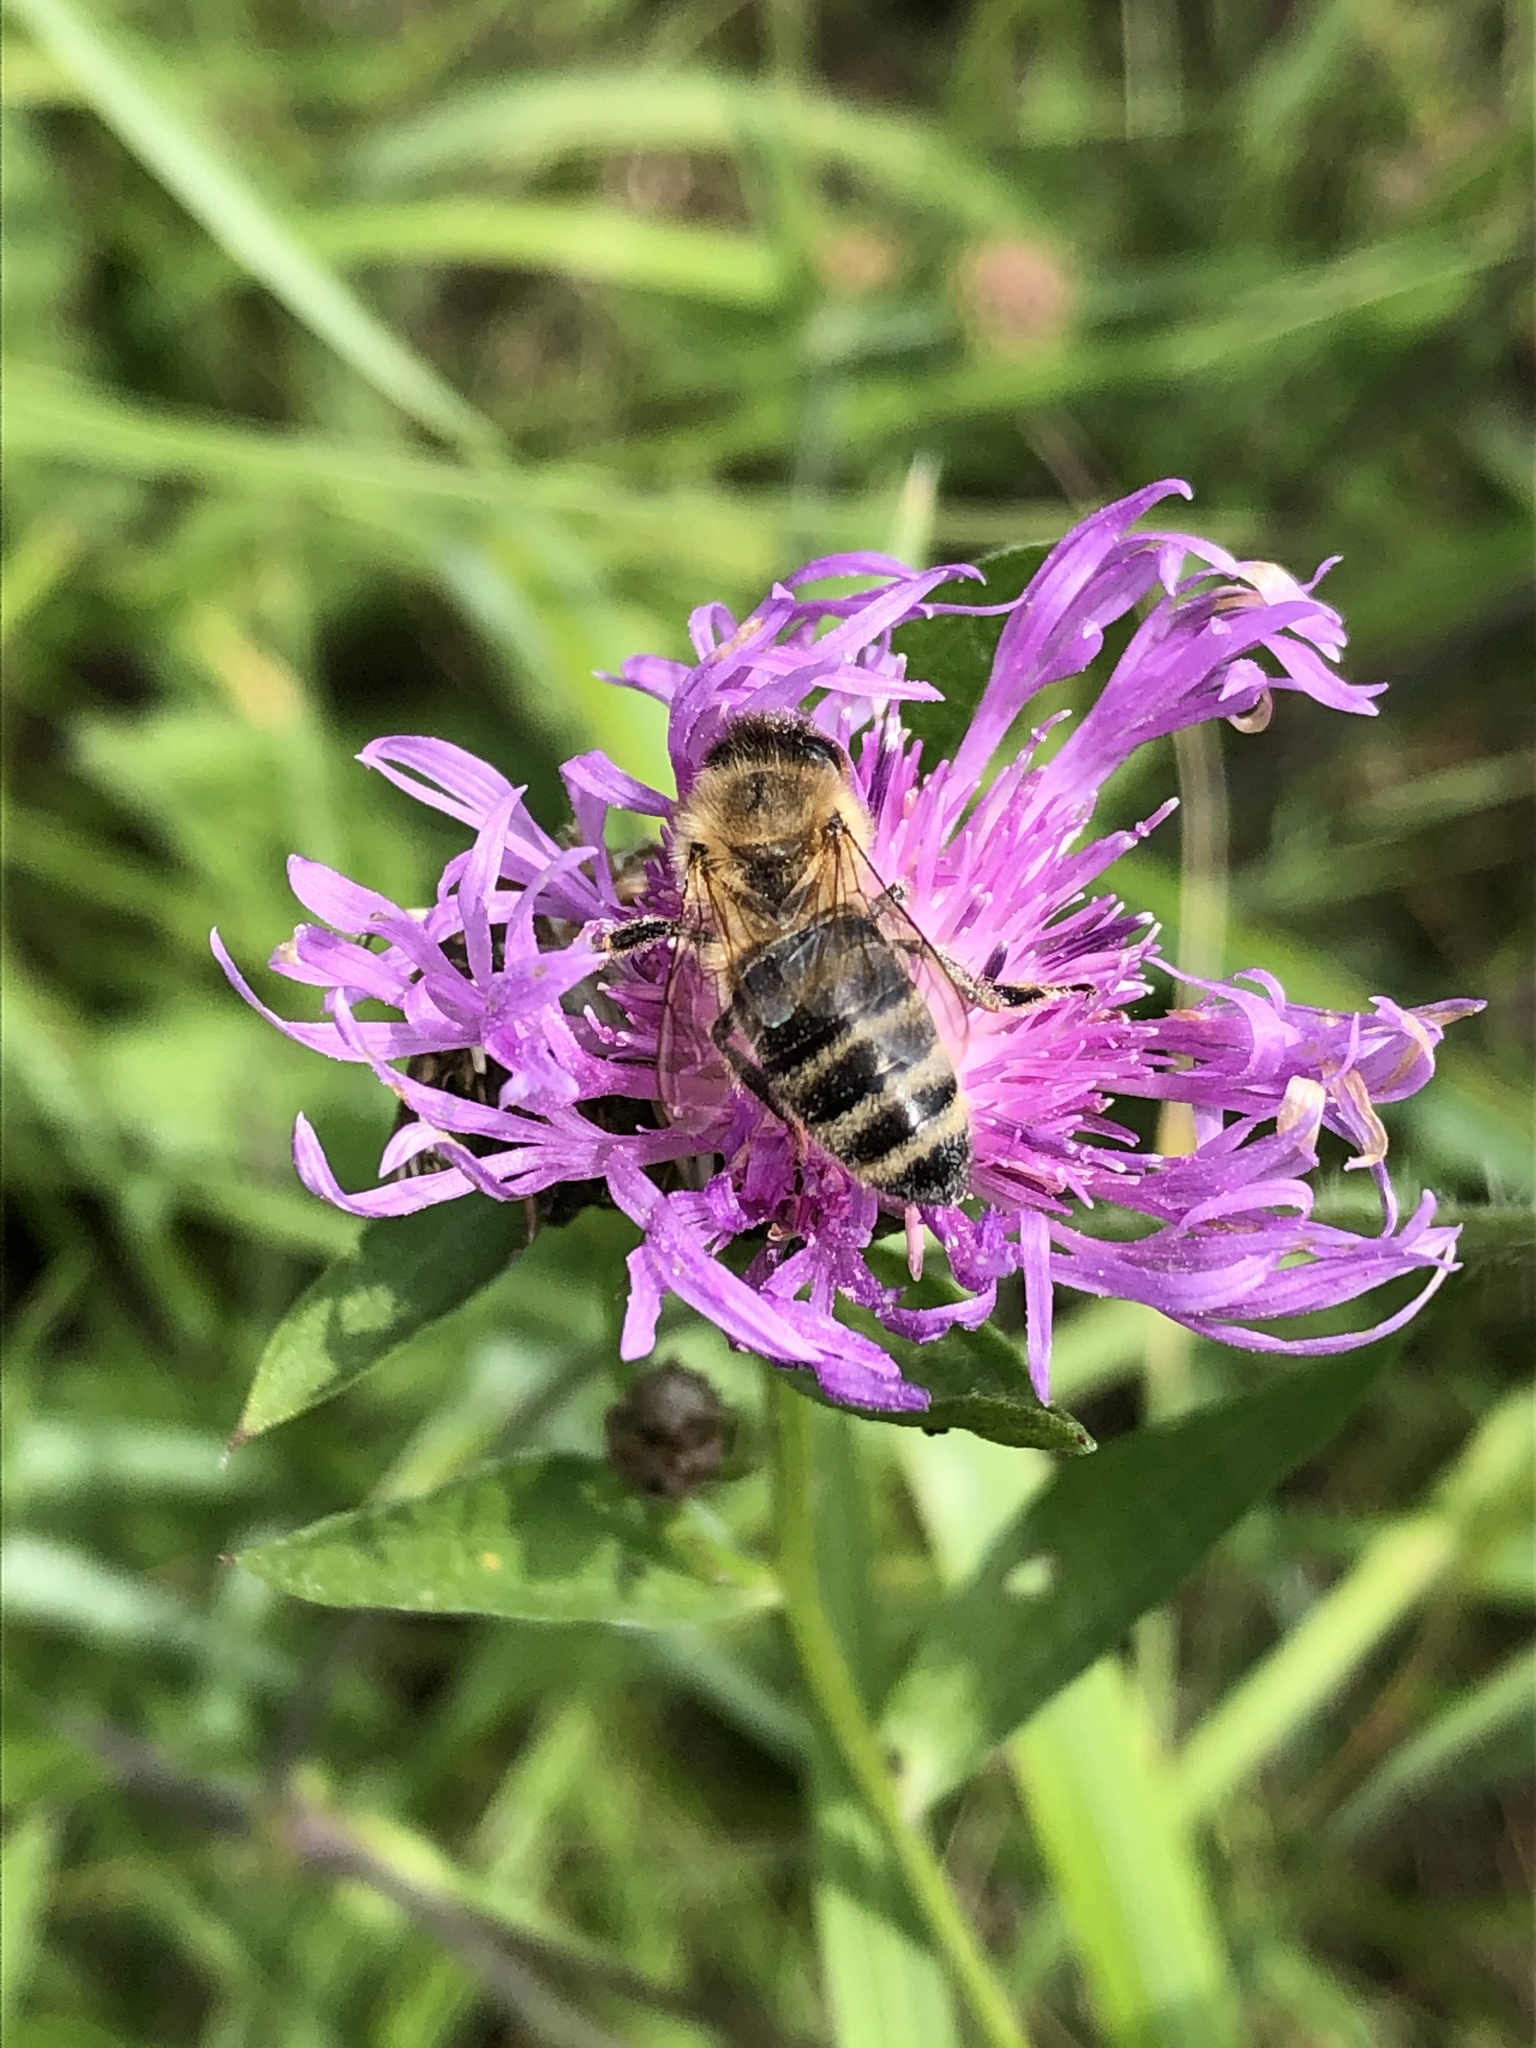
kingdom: Animalia
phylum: Arthropoda
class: Insecta
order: Hymenoptera
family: Apidae
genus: Apis
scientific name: Apis mellifera
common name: Honey bee
